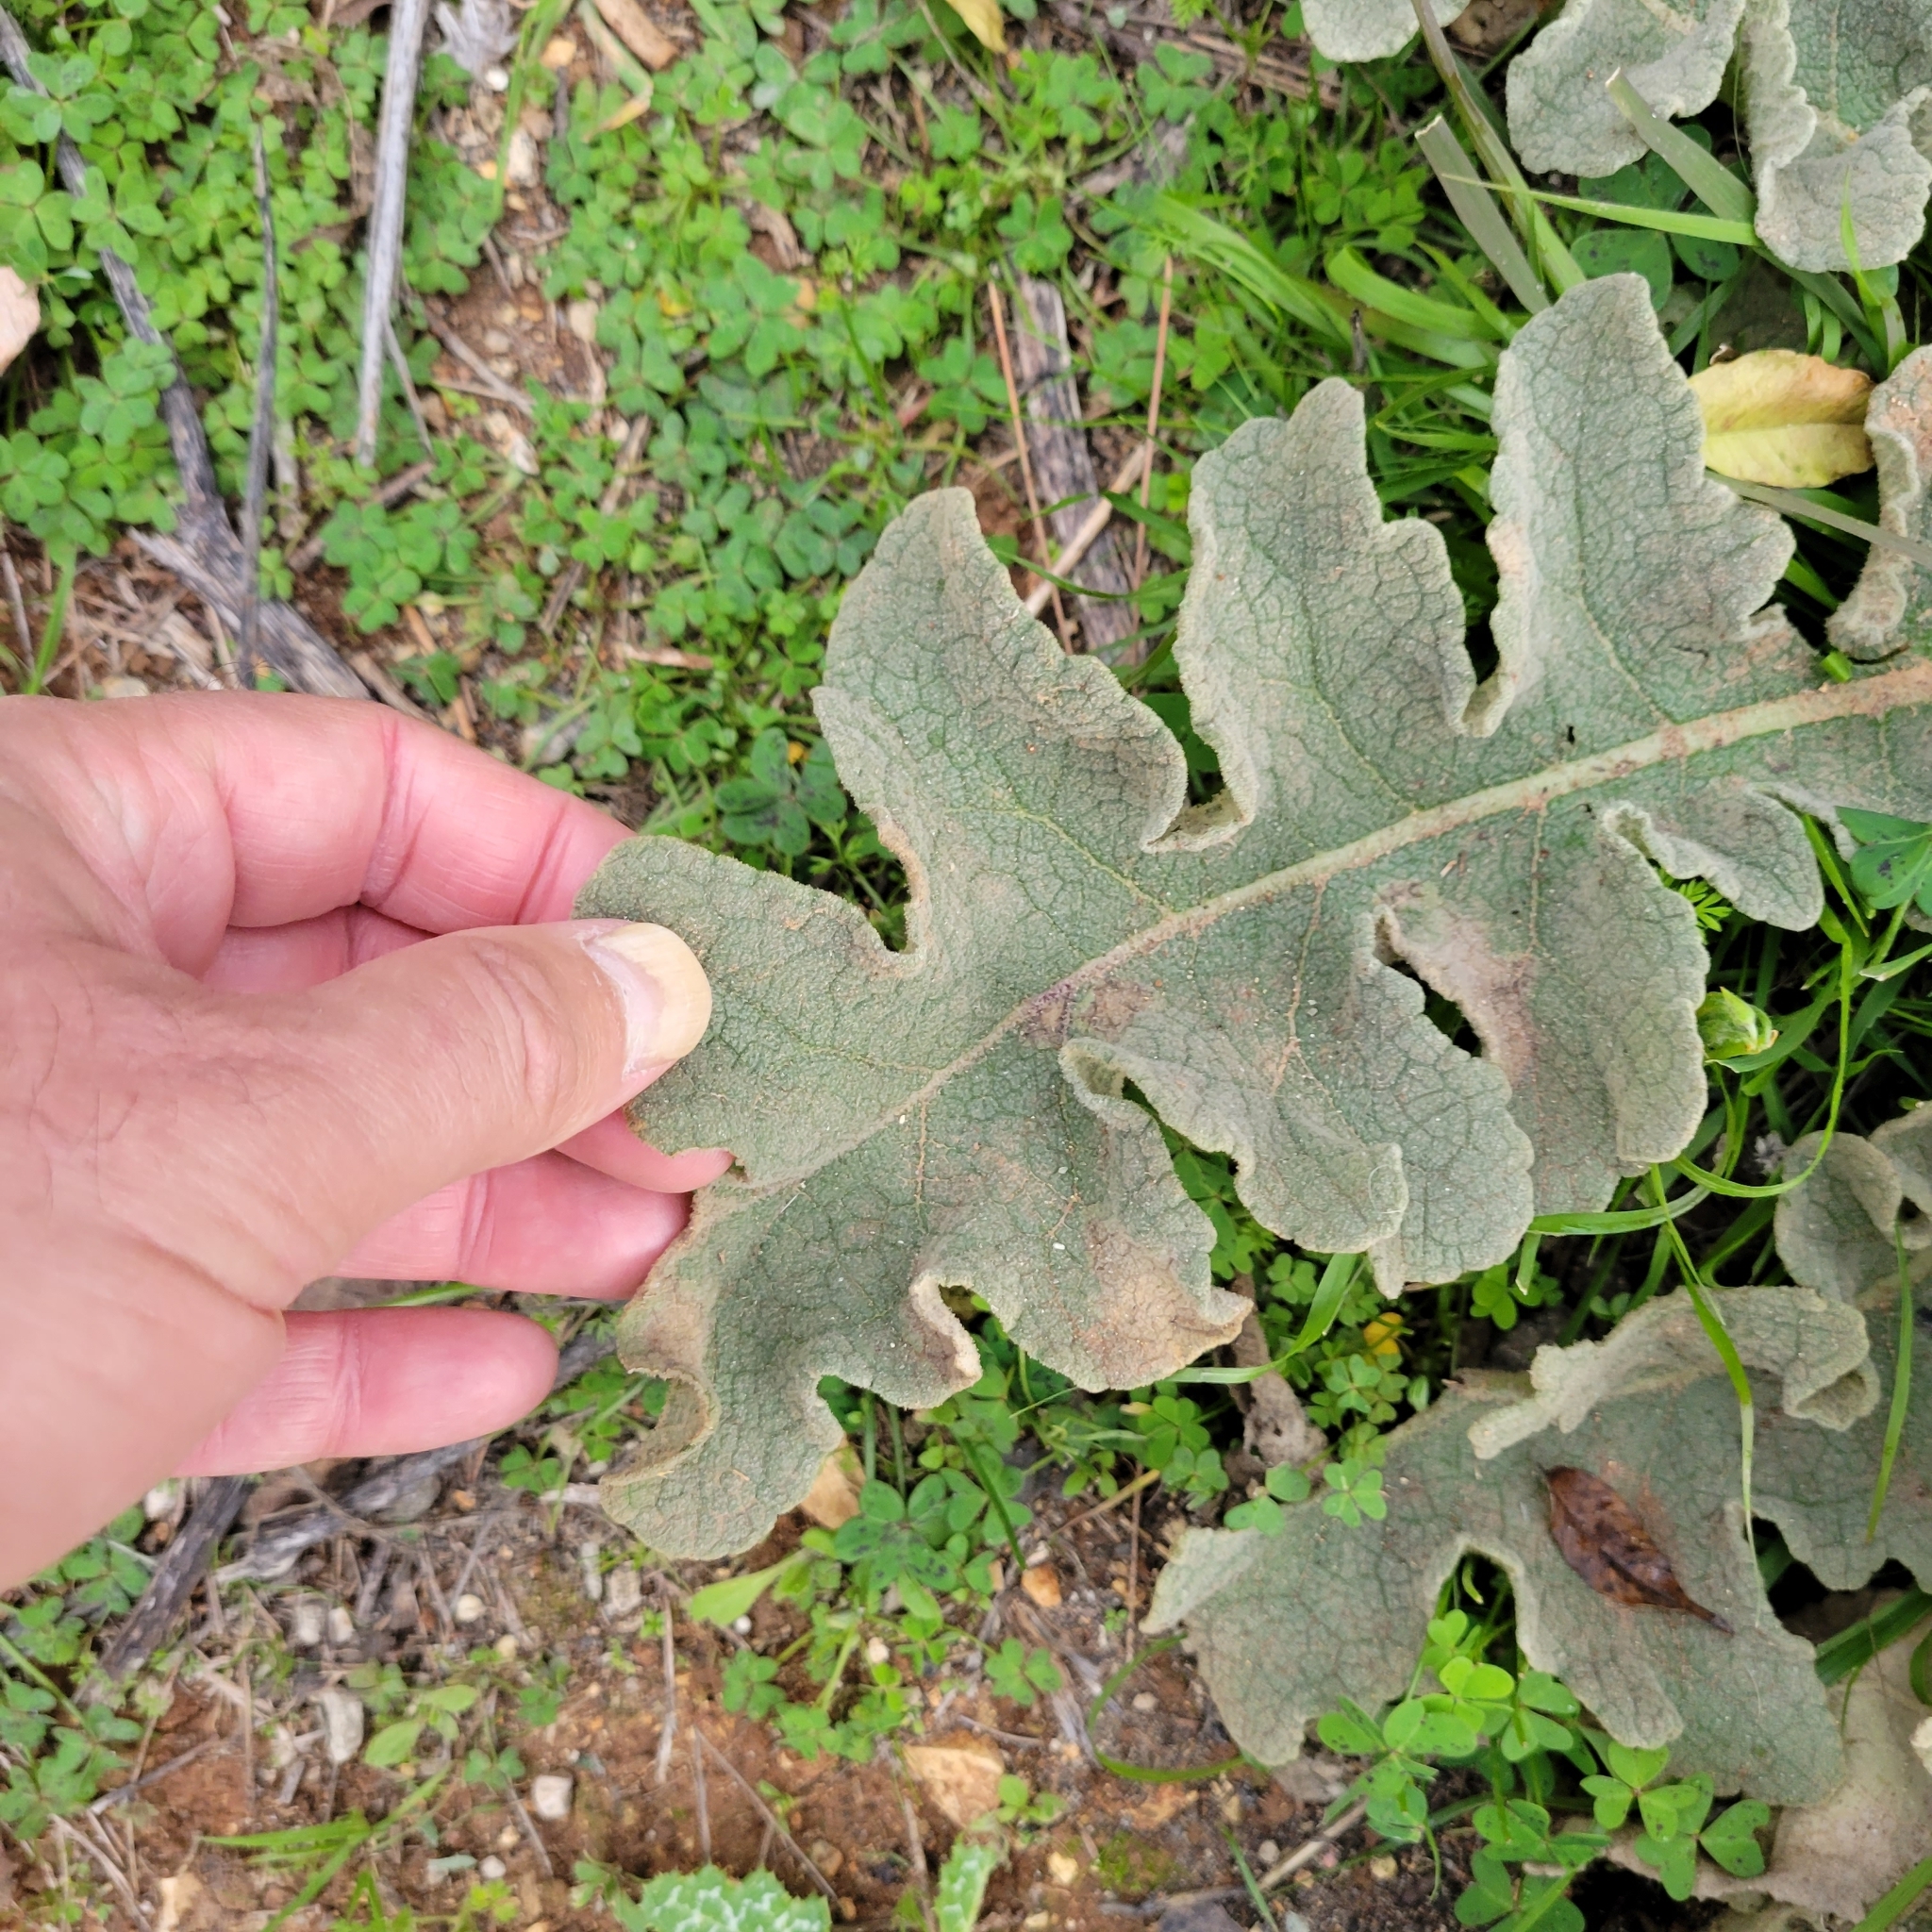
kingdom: Plantae
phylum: Tracheophyta
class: Magnoliopsida
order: Lamiales
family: Scrophulariaceae
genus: Verbascum
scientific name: Verbascum sinuatum
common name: Wavyleaf mullein
